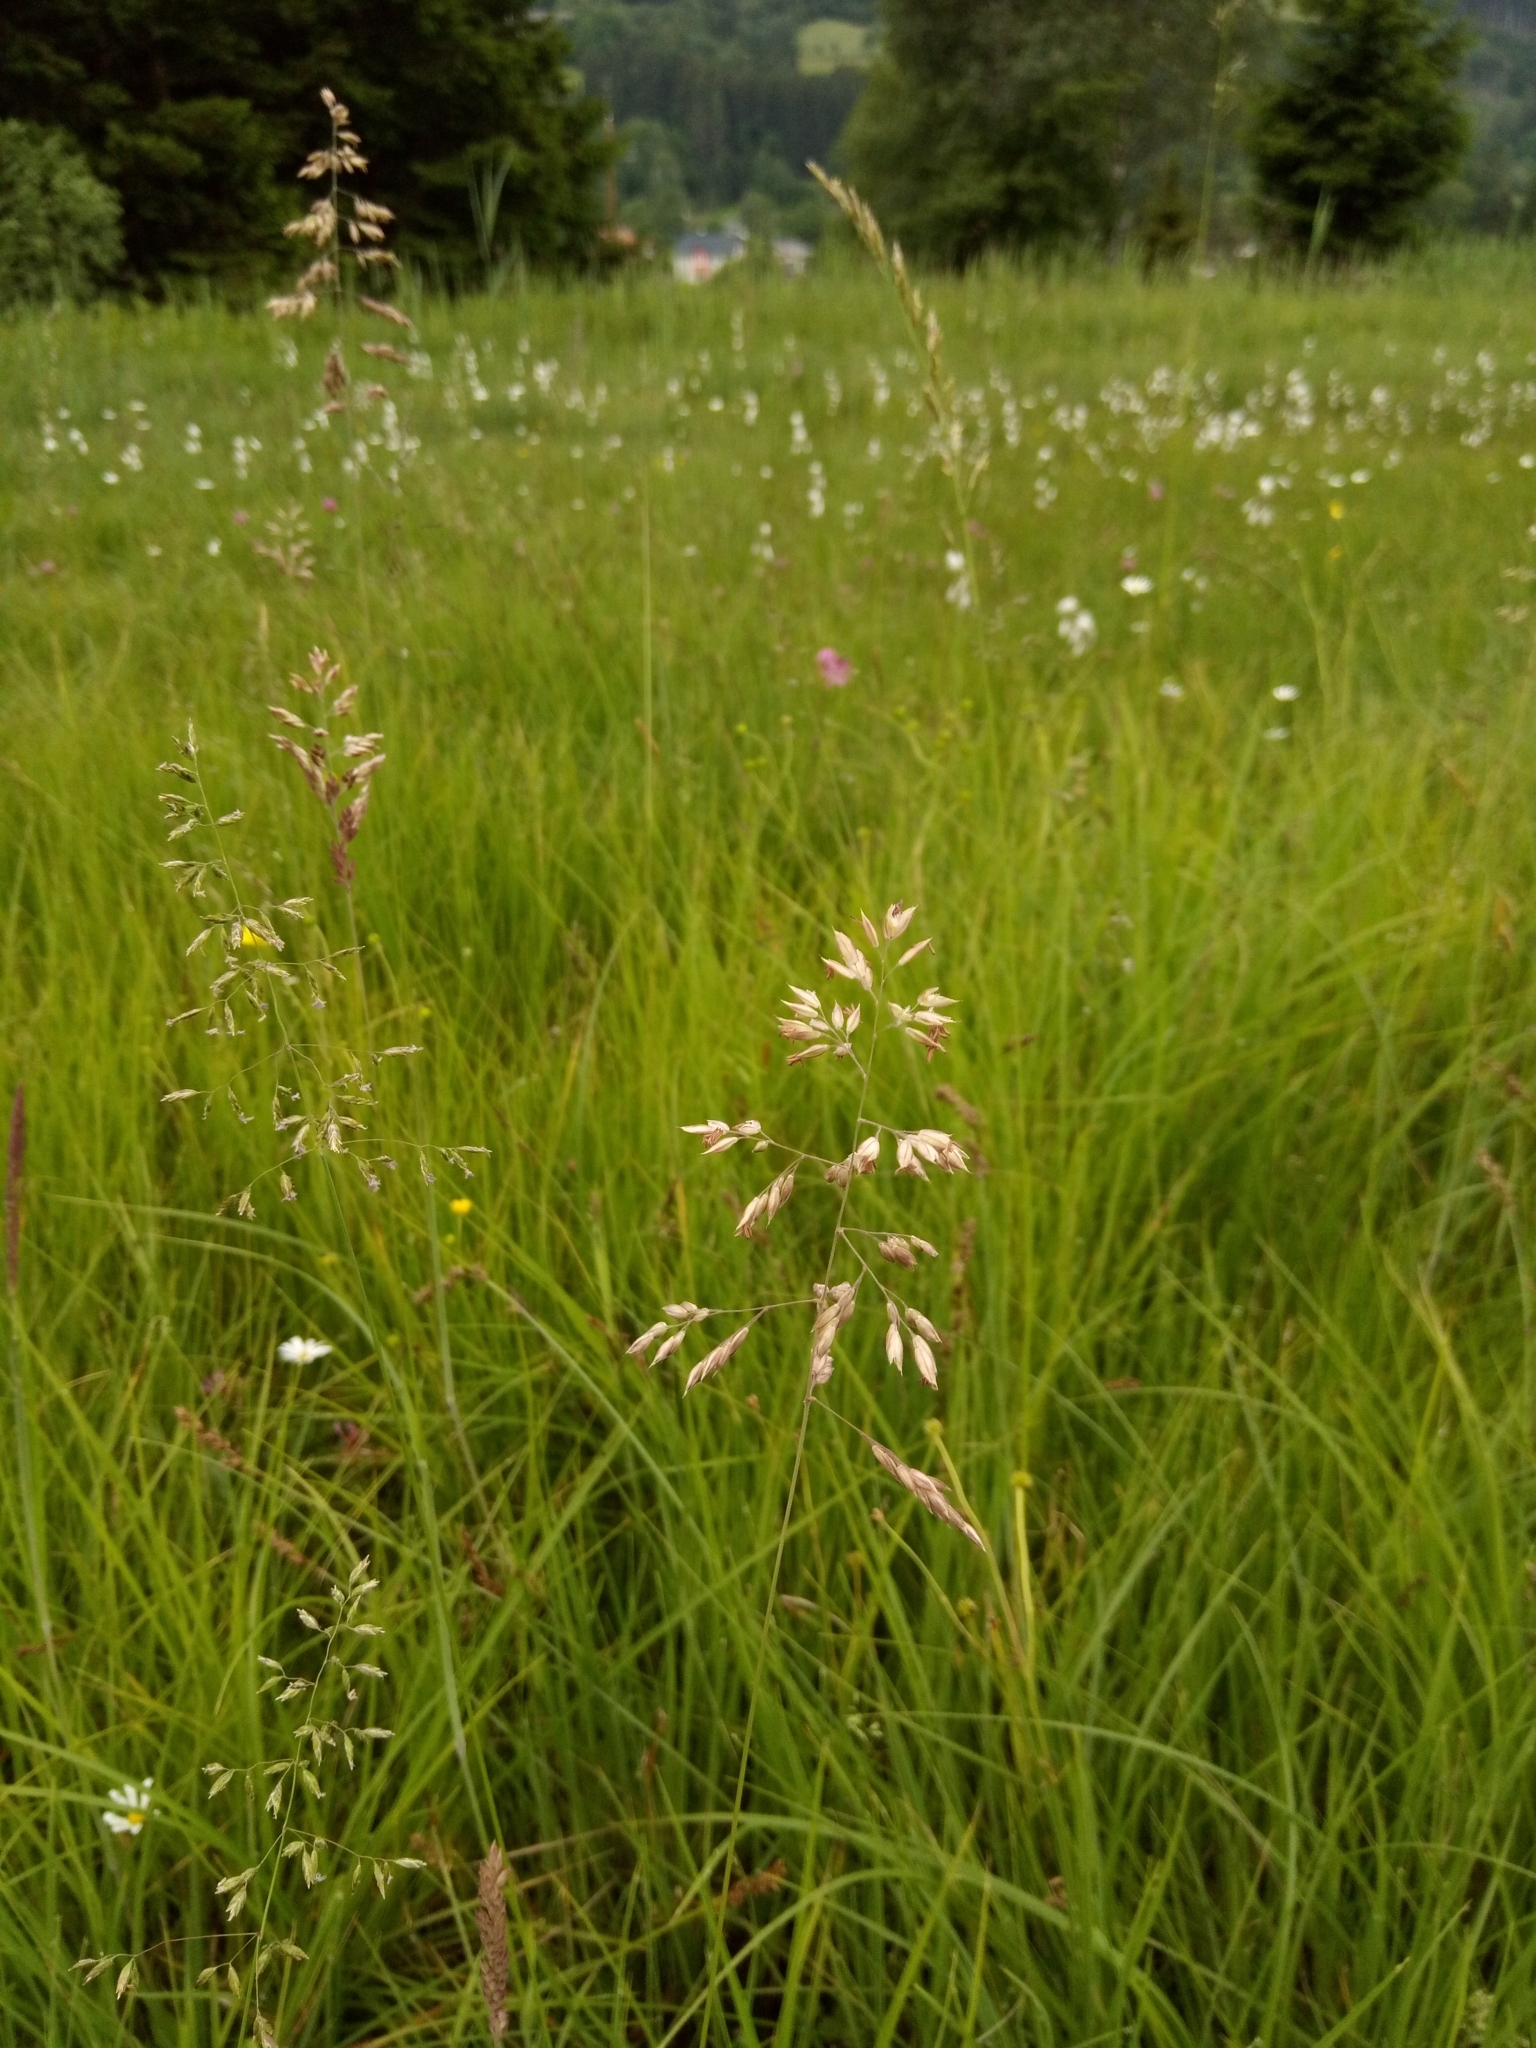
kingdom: Plantae
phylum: Tracheophyta
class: Liliopsida
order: Poales
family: Poaceae
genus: Holcus
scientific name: Holcus lanatus
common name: Yorkshire-fog
